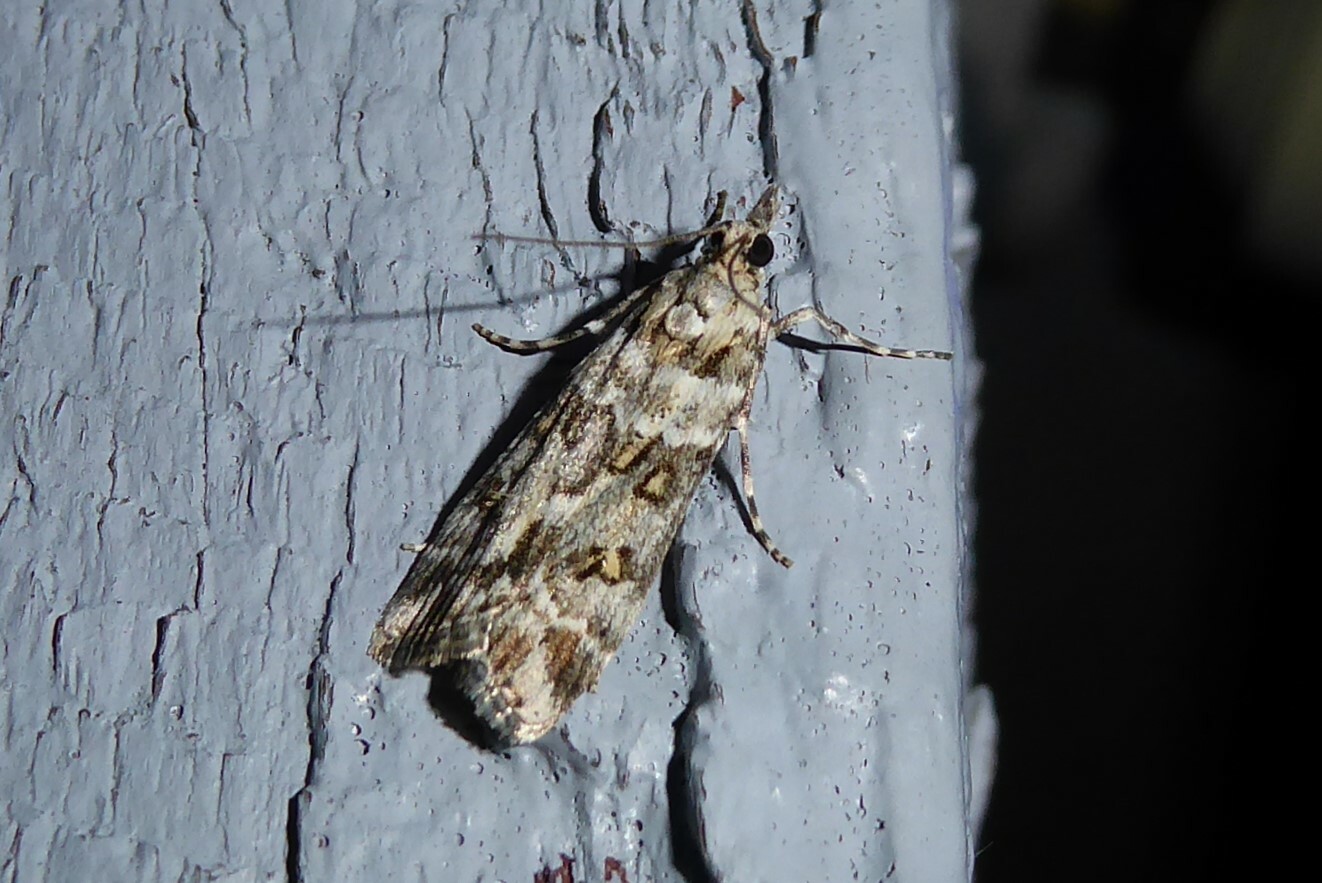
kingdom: Animalia
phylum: Arthropoda
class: Insecta
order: Lepidoptera
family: Crambidae
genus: Scoparia
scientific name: Scoparia tetracycla
